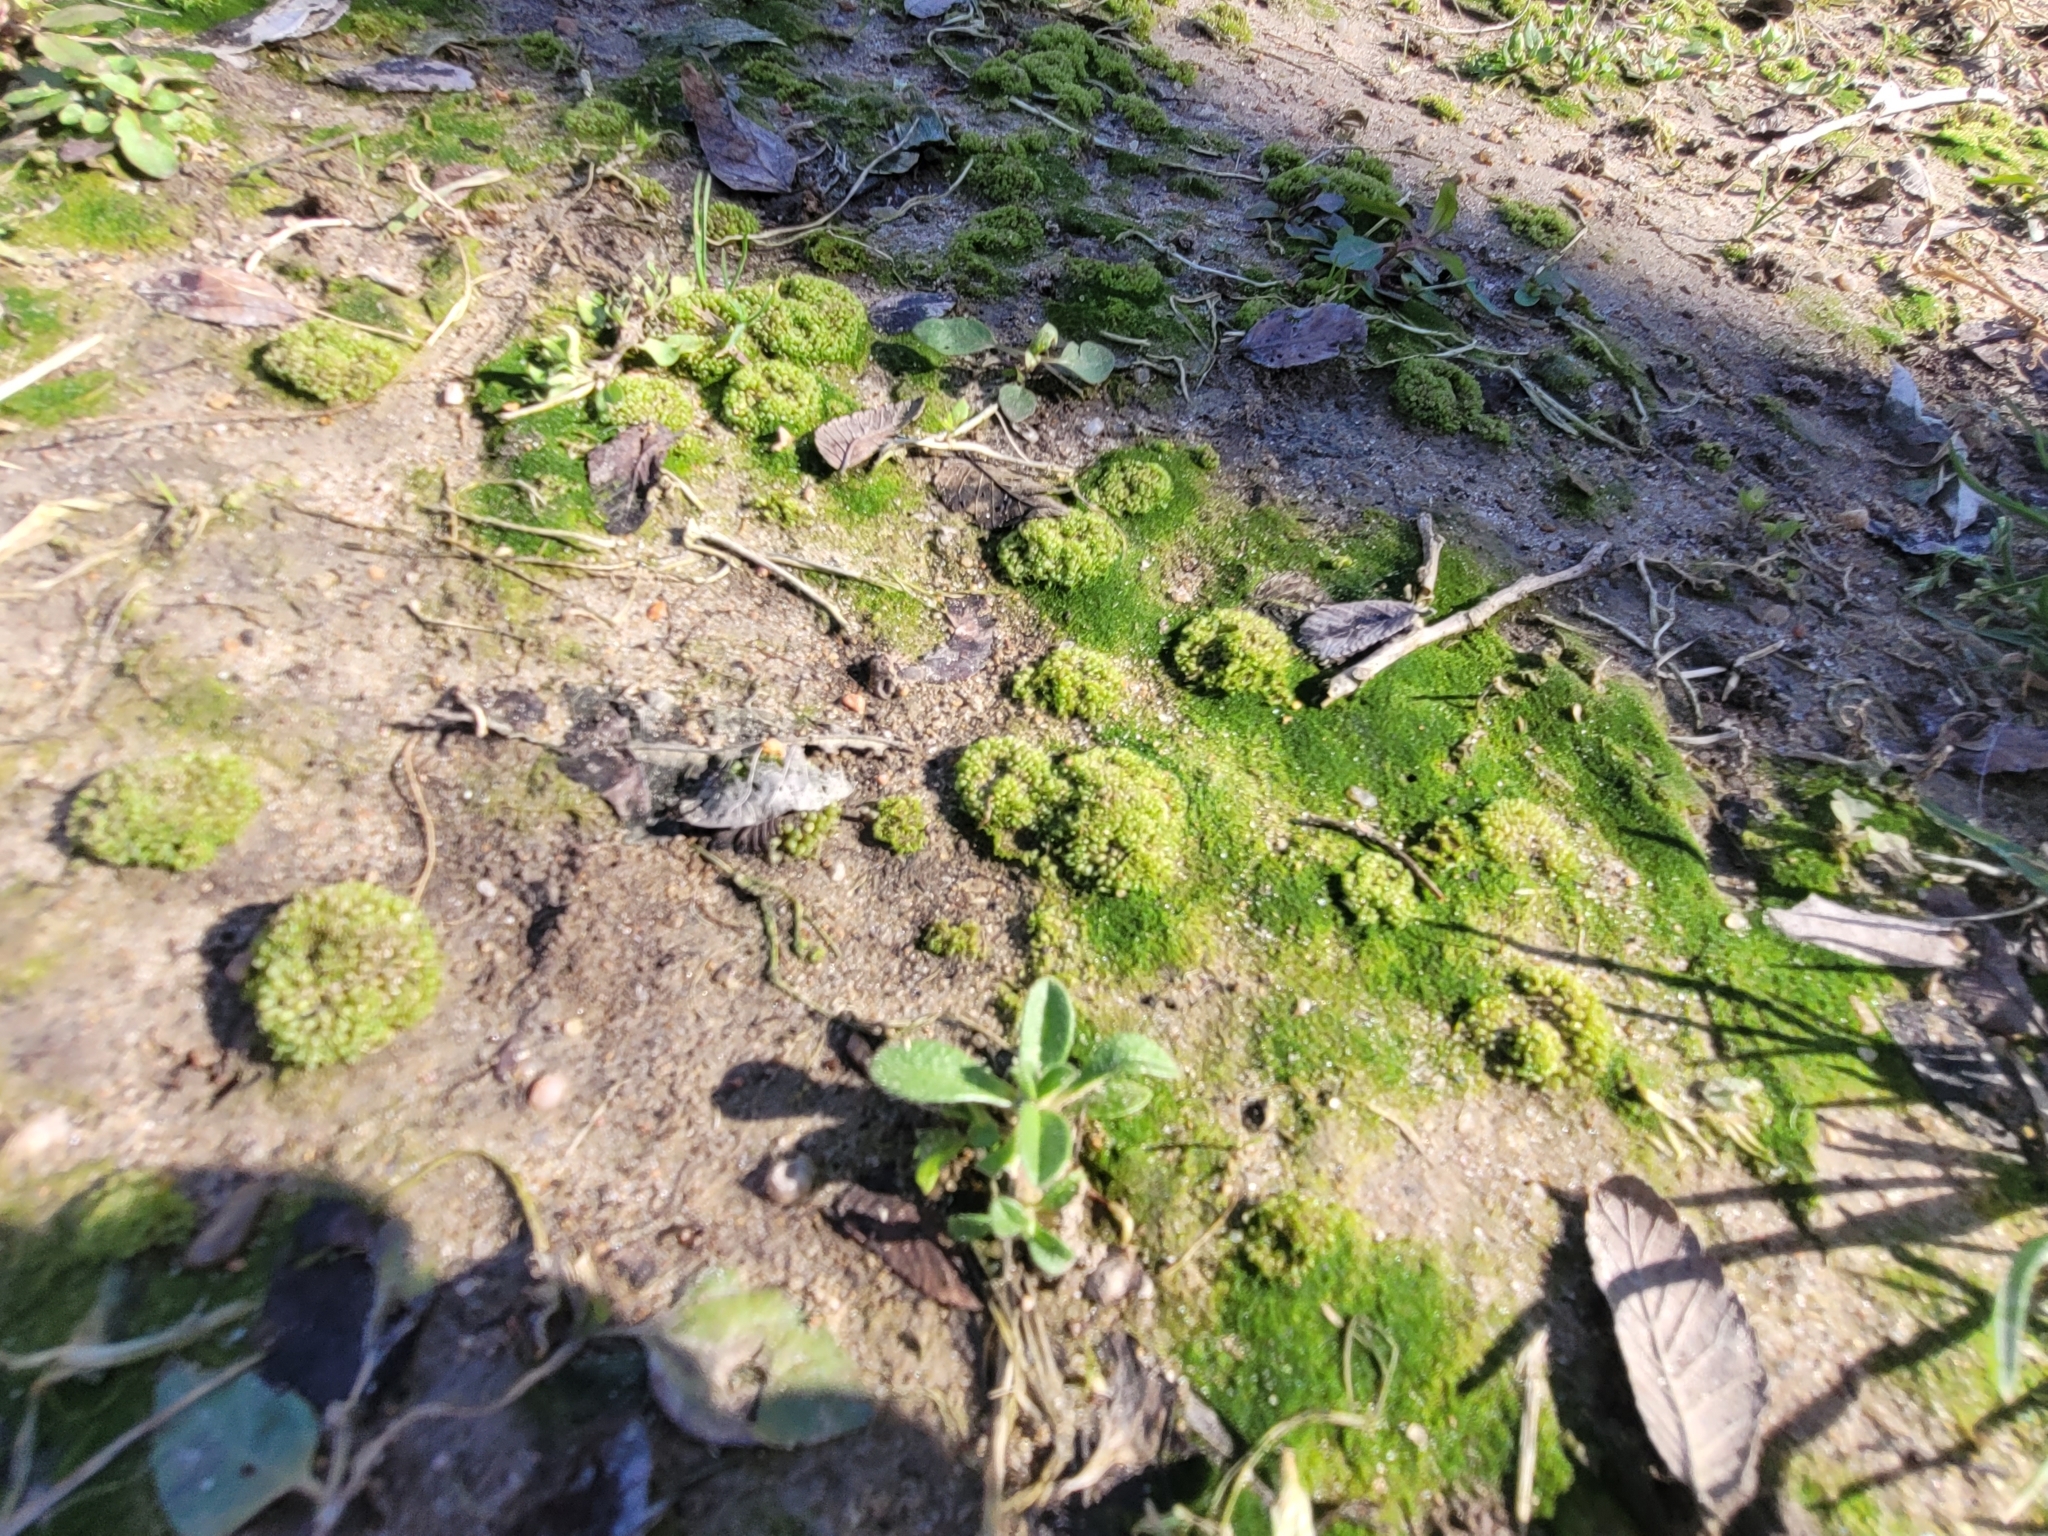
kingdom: Plantae
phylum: Marchantiophyta
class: Marchantiopsida
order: Sphaerocarpales
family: Sphaerocarpaceae
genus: Sphaerocarpos
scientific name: Sphaerocarpos texanus
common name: Texas balloonwort
